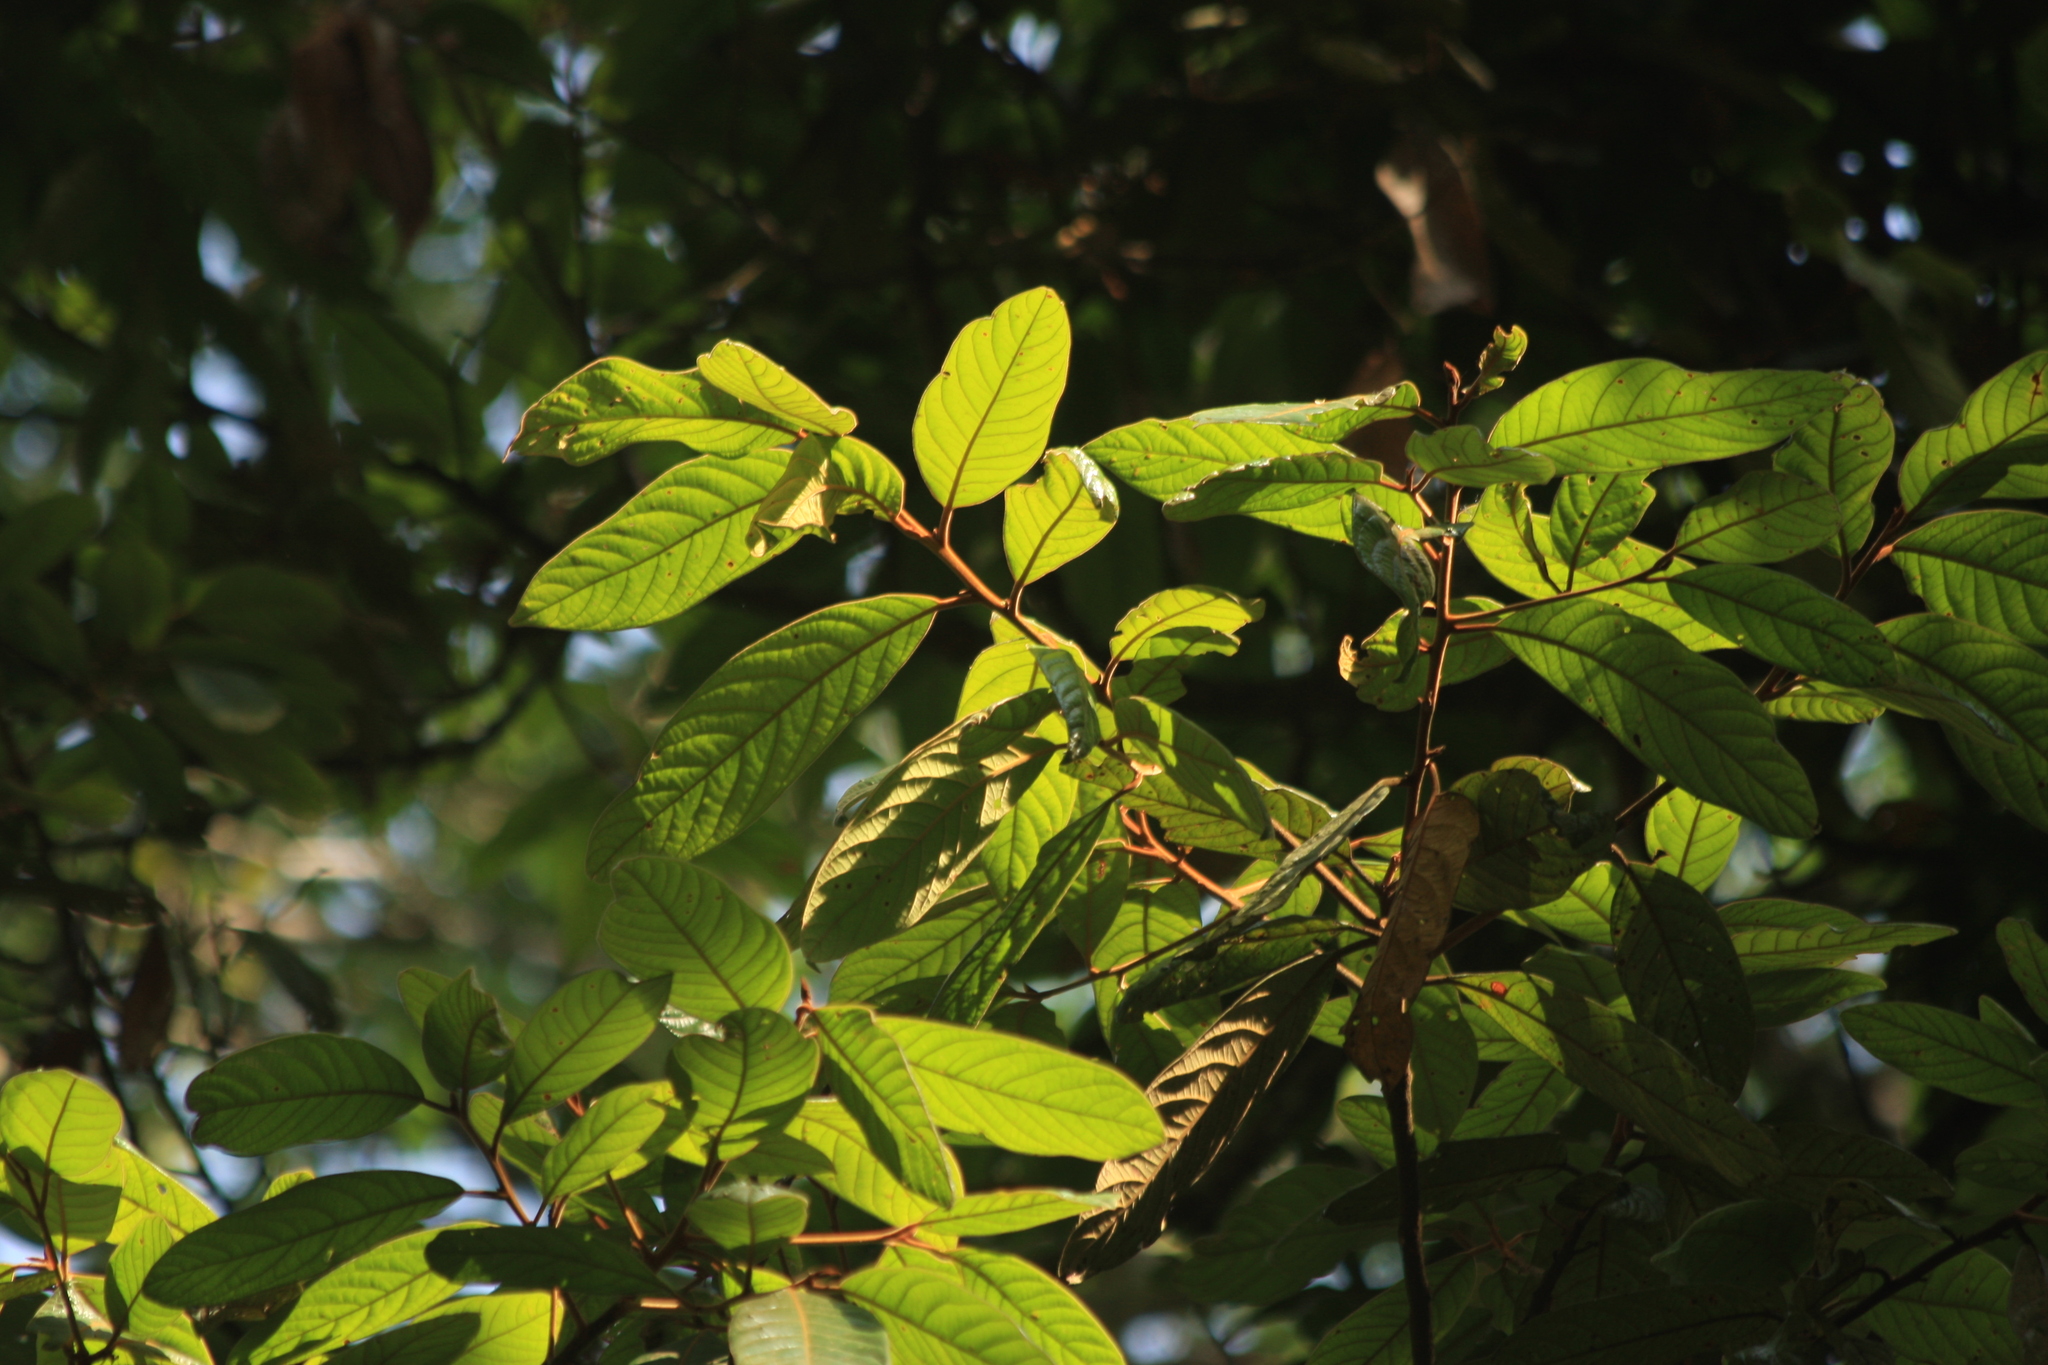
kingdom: Plantae
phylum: Tracheophyta
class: Magnoliopsida
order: Laurales
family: Lauraceae
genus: Litsea
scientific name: Litsea floribunda
